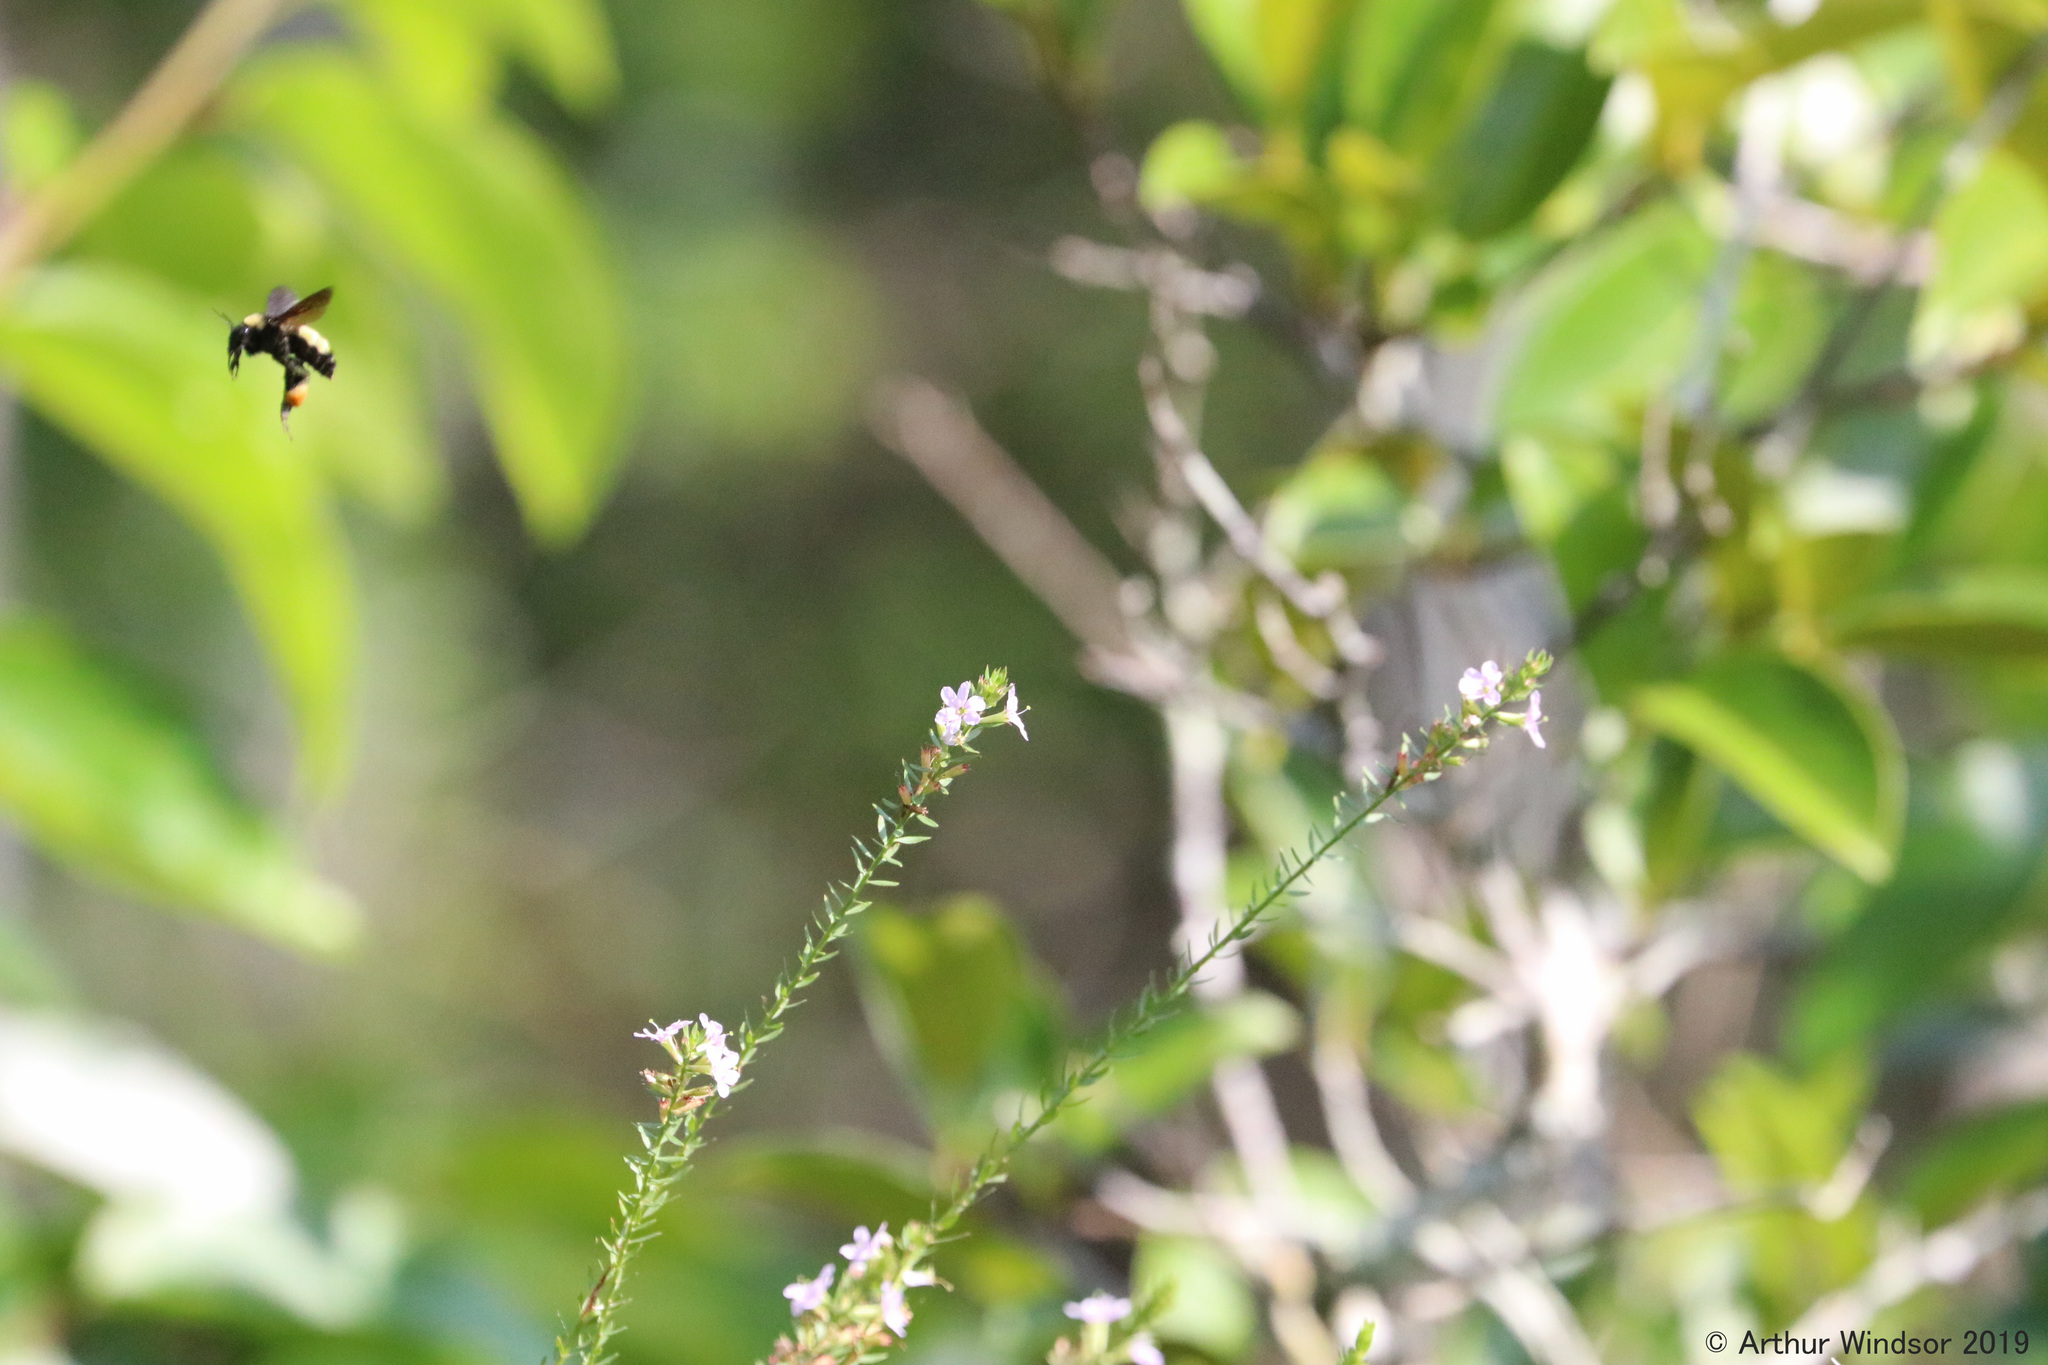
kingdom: Animalia
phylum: Arthropoda
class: Insecta
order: Hymenoptera
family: Apidae
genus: Bombus
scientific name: Bombus pensylvanicus
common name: Bumble bee
